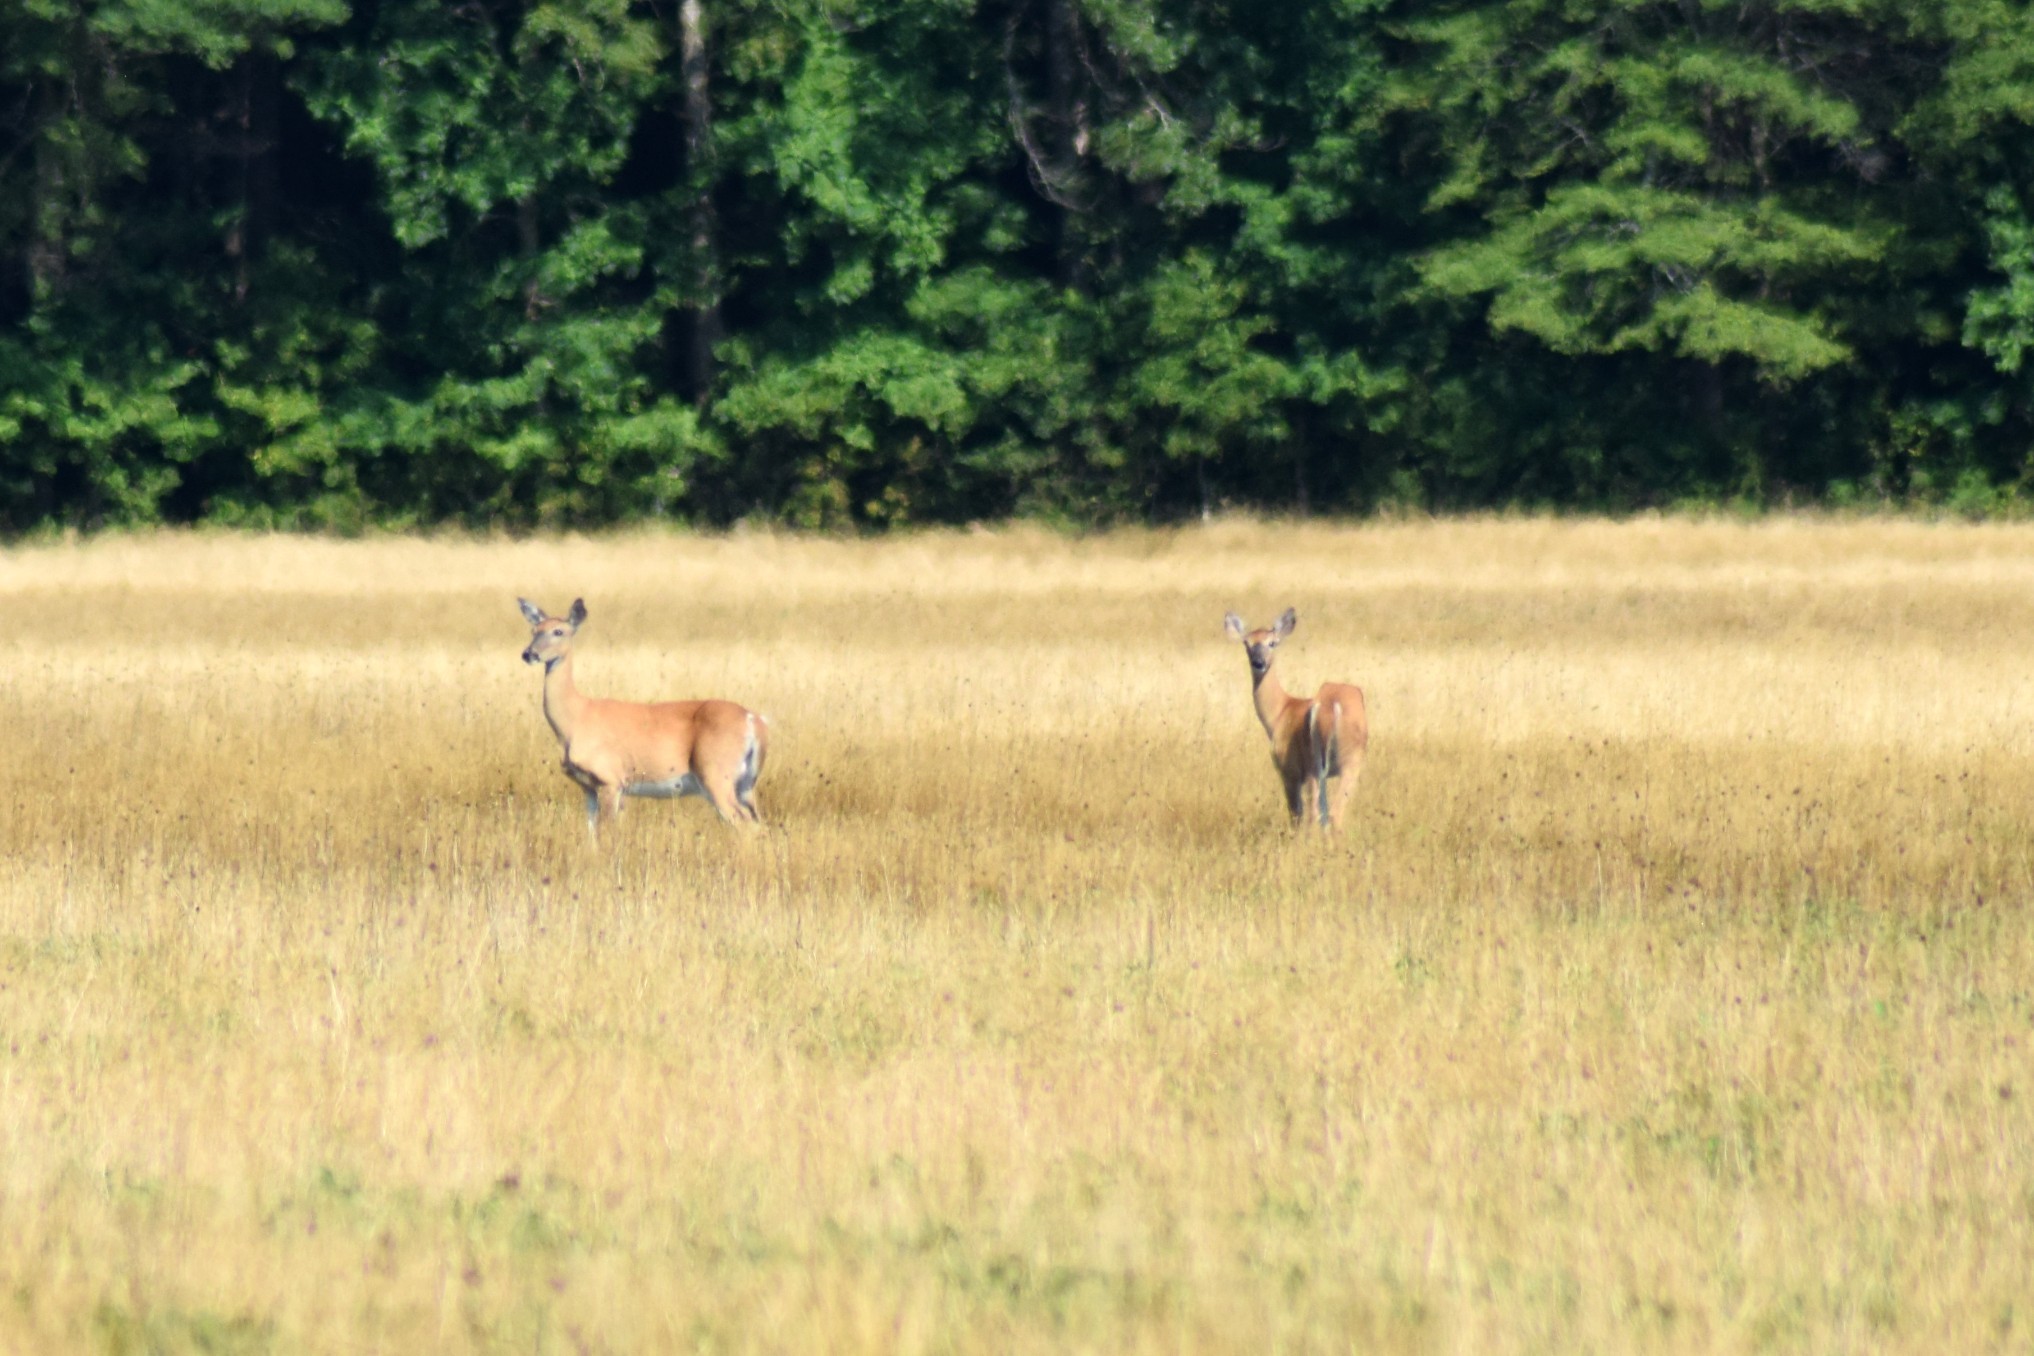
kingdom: Animalia
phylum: Chordata
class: Mammalia
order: Artiodactyla
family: Cervidae
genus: Odocoileus
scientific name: Odocoileus virginianus
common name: White-tailed deer
